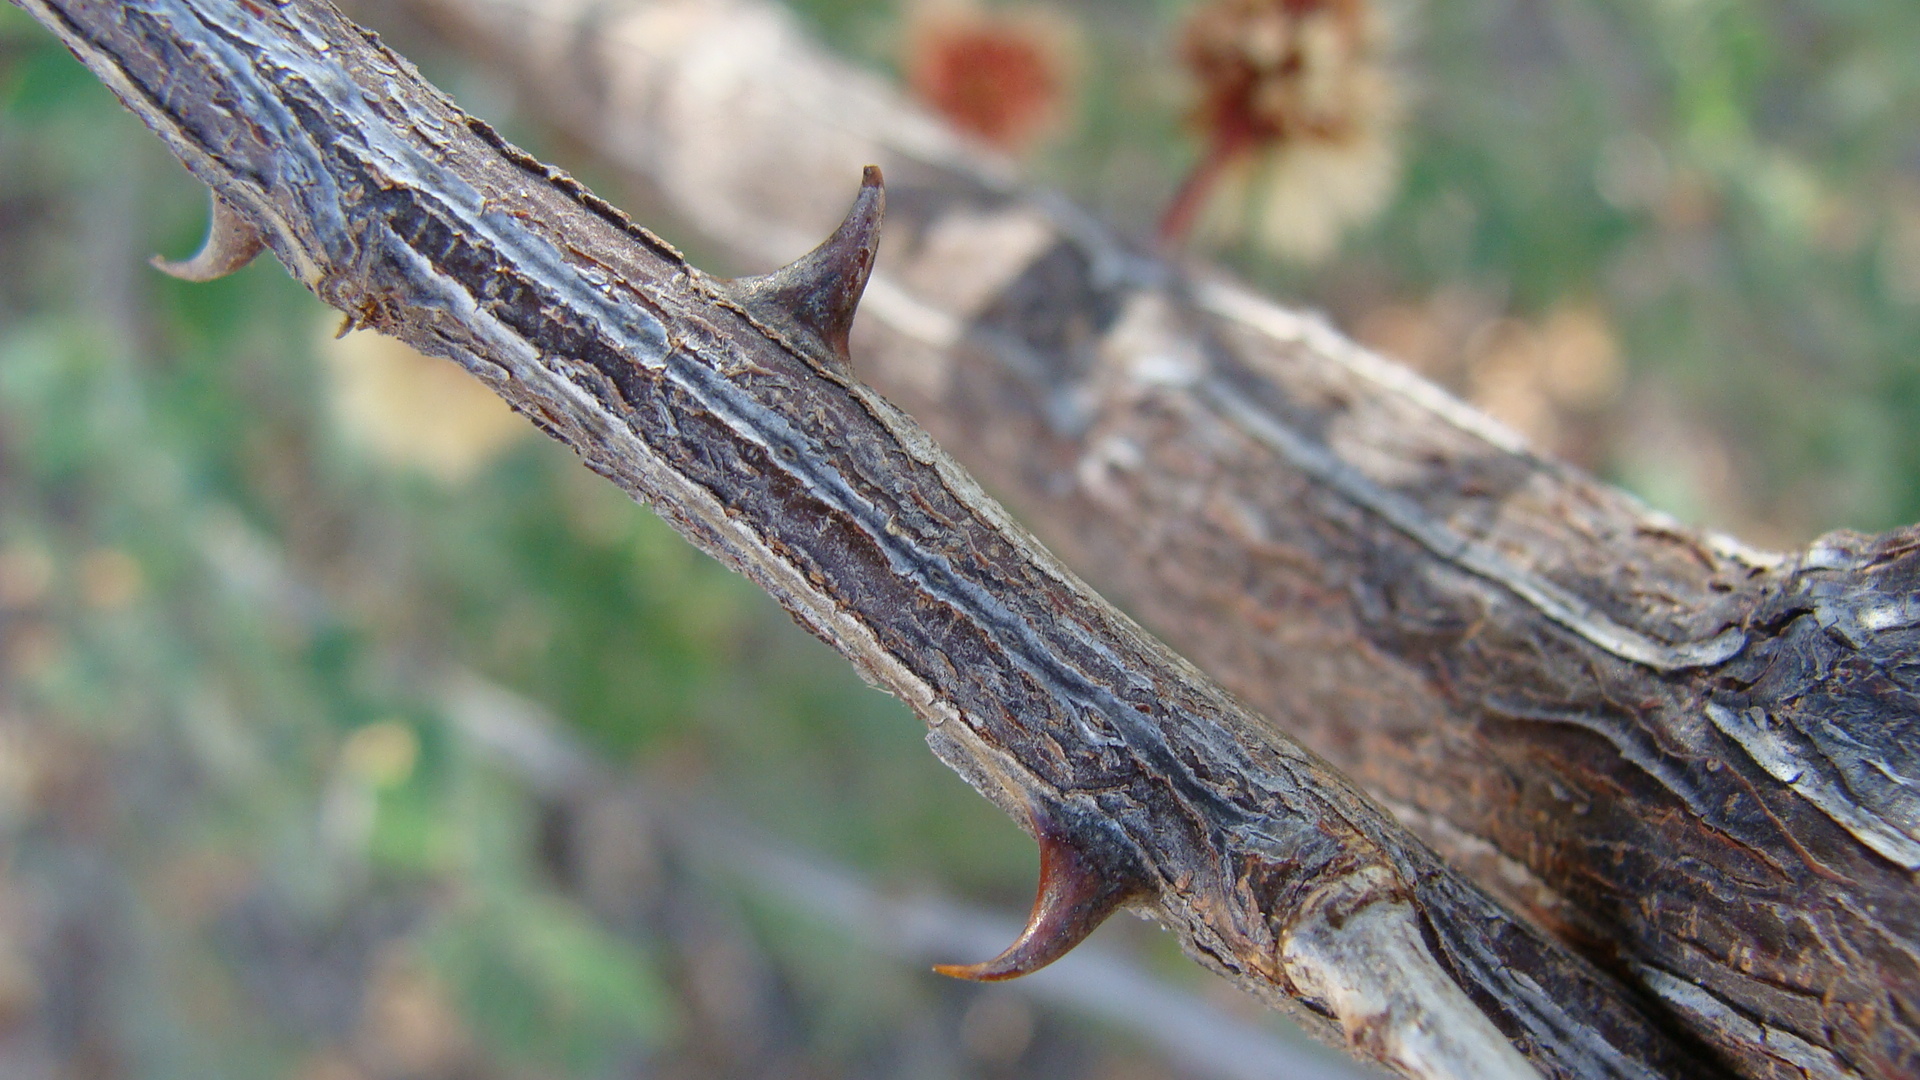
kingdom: Plantae
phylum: Tracheophyta
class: Magnoliopsida
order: Fabales
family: Fabaceae
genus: Senegalia
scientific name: Senegalia peninsularis
